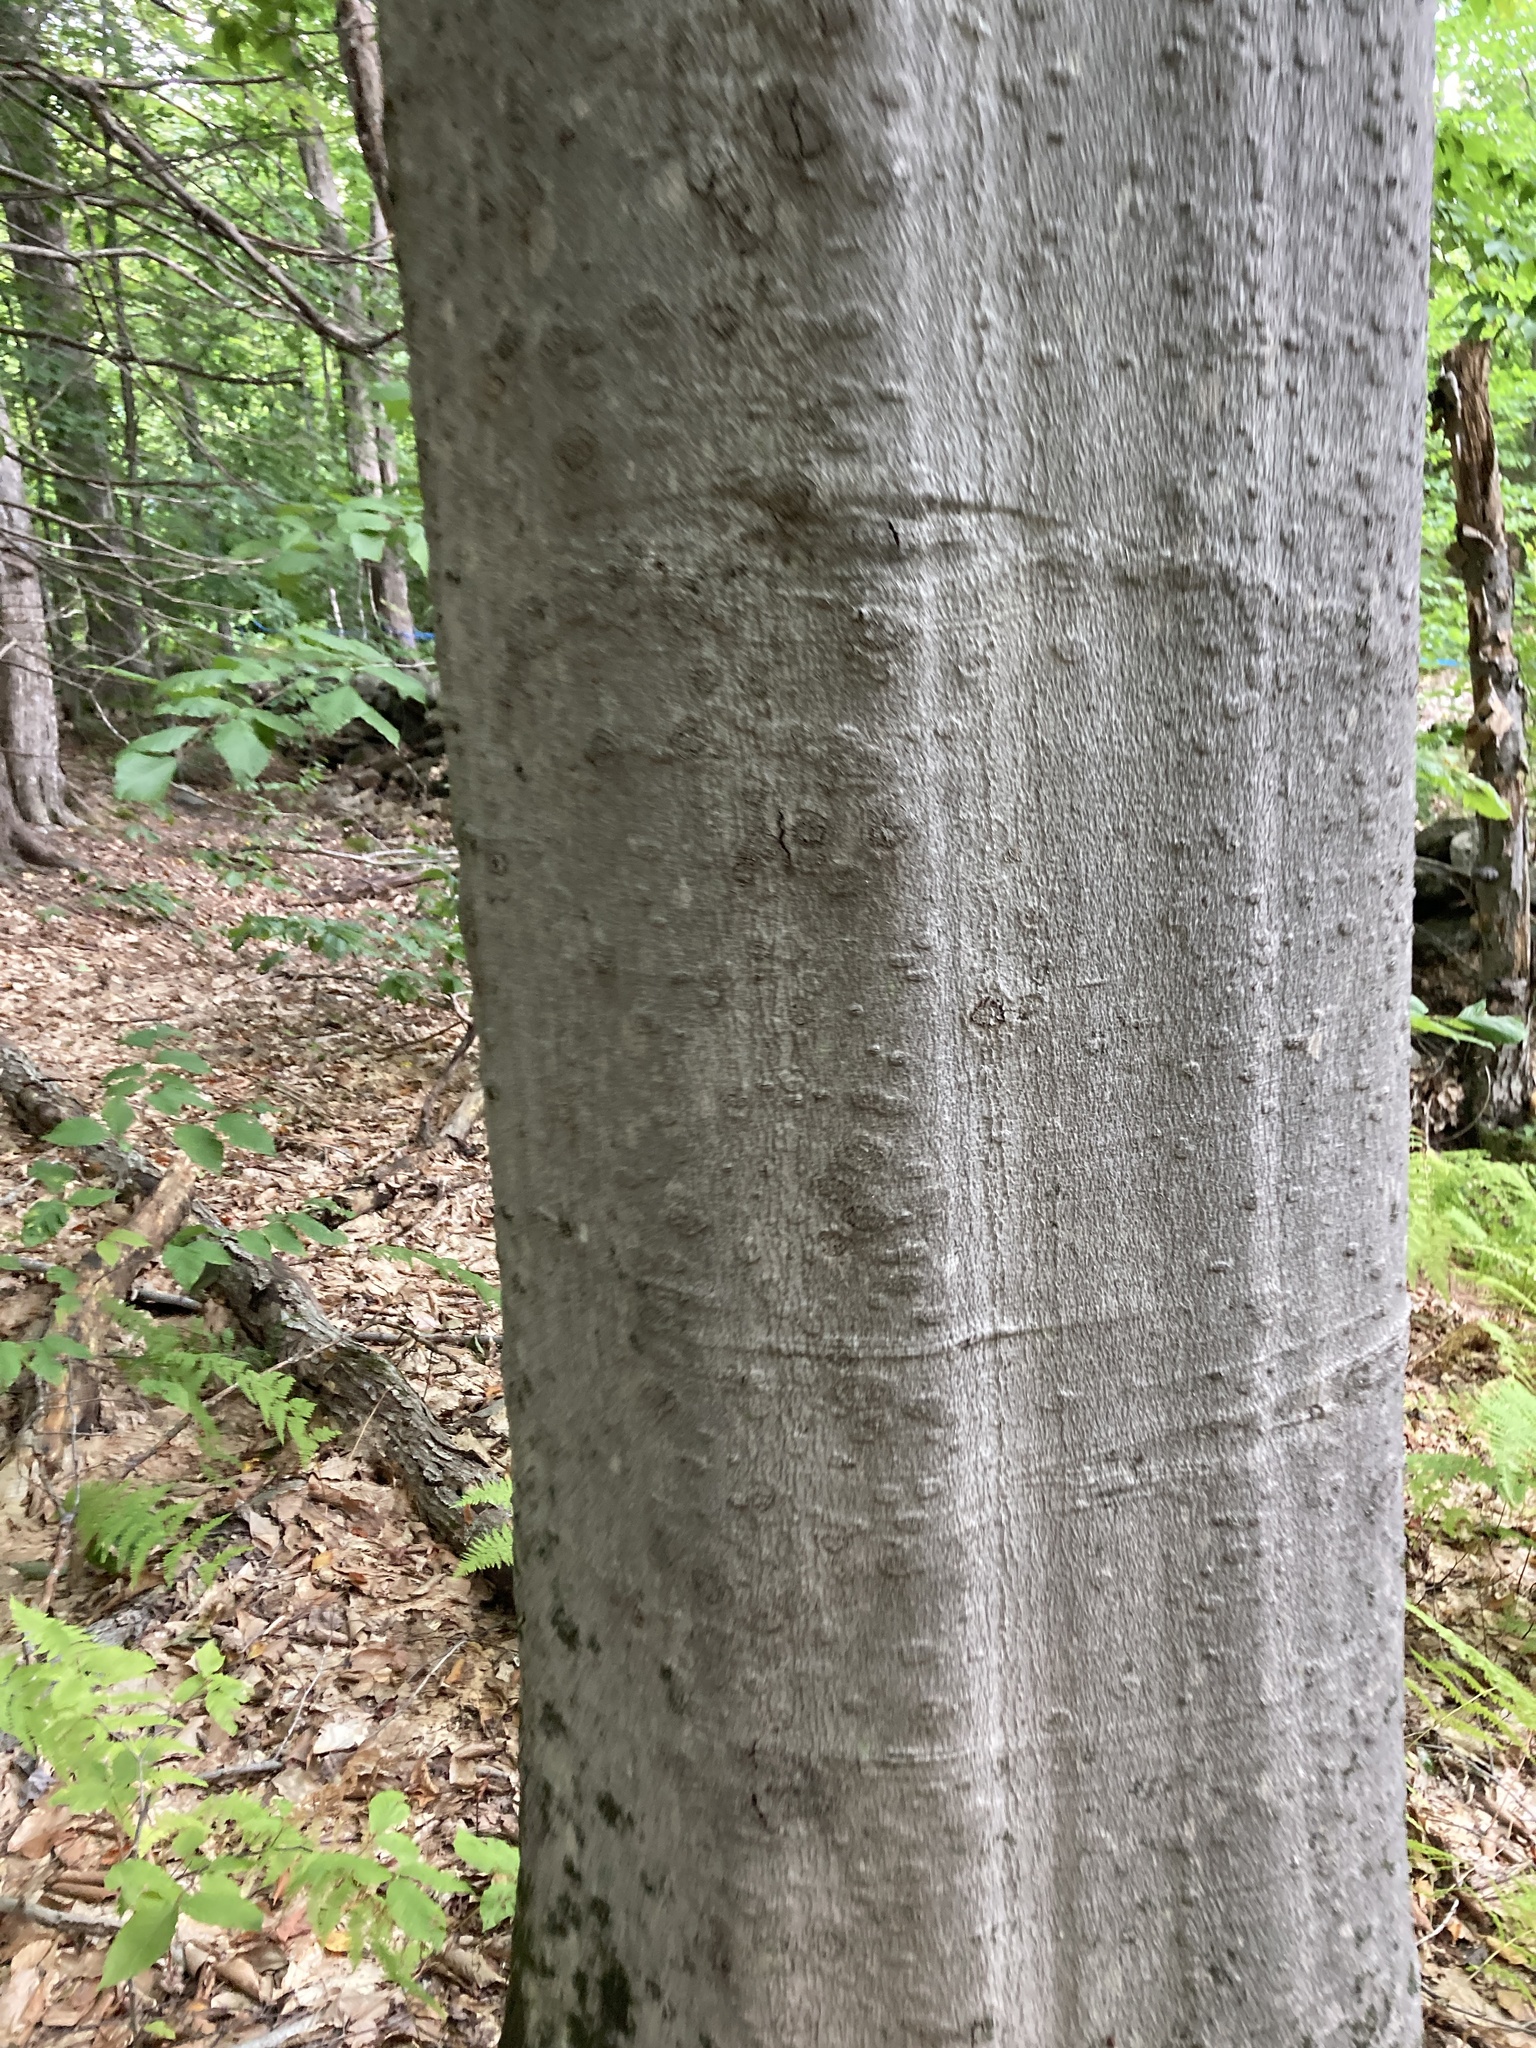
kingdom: Plantae
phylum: Tracheophyta
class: Magnoliopsida
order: Fagales
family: Fagaceae
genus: Fagus
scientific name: Fagus grandifolia
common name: American beech
